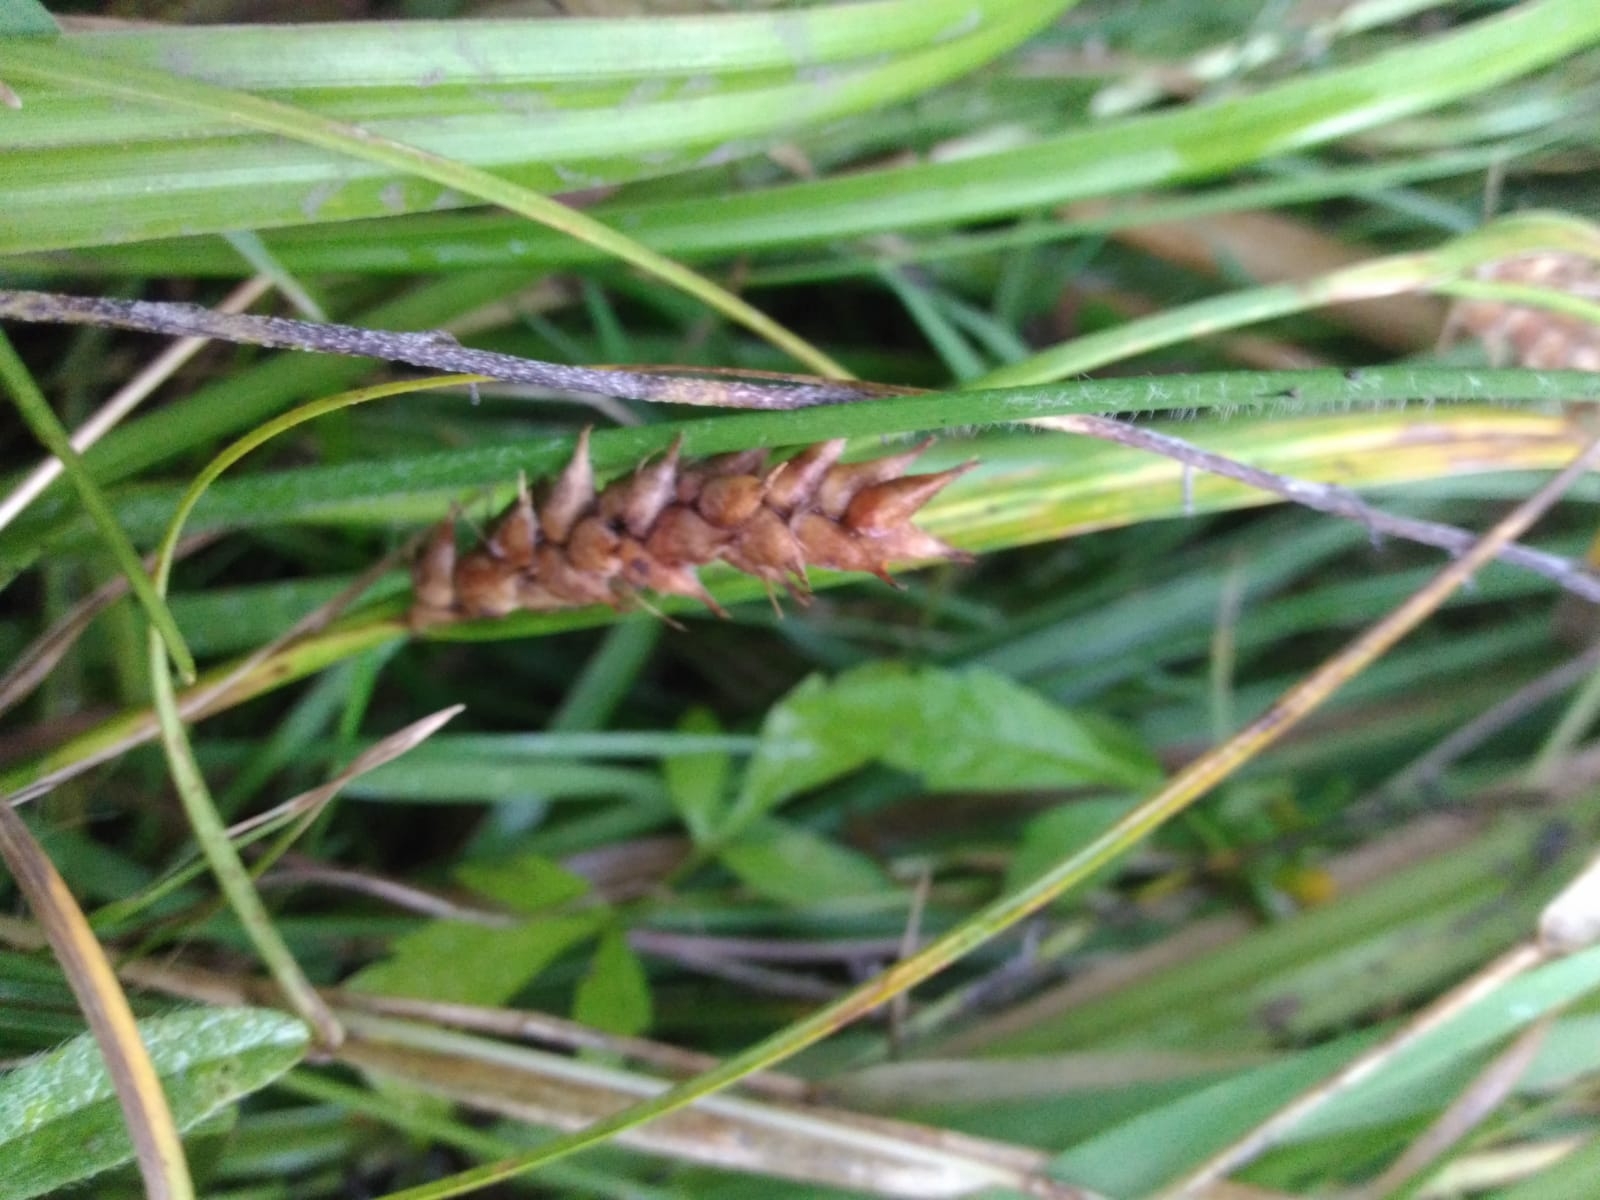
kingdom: Plantae
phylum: Tracheophyta
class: Liliopsida
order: Poales
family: Cyperaceae
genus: Carex
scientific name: Carex hirta
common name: Hairy sedge
